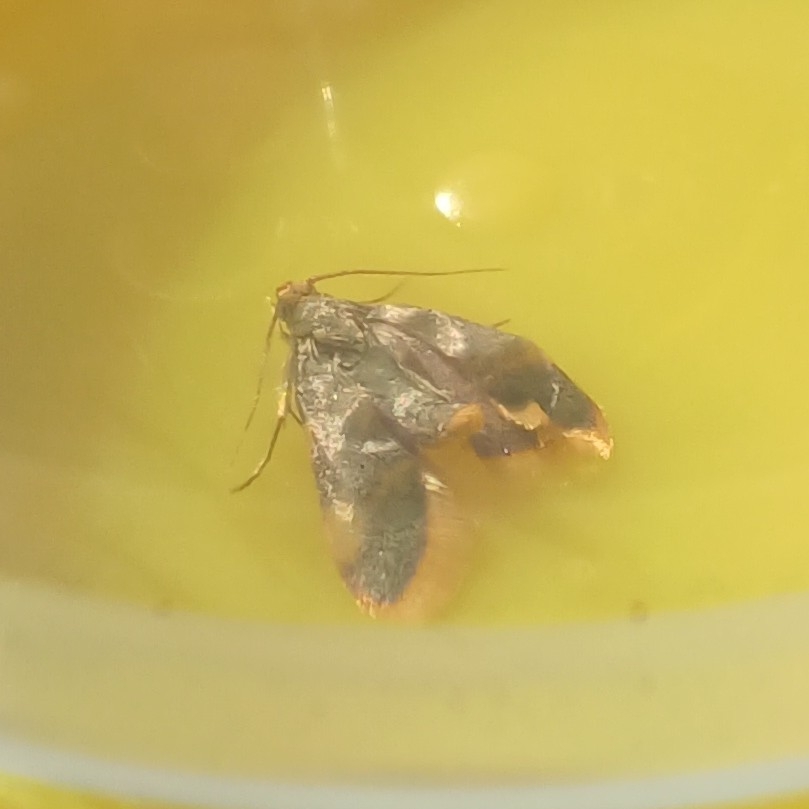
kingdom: Animalia
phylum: Arthropoda
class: Insecta
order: Lepidoptera
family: Pyralidae
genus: Hypsopygia
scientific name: Hypsopygia costalis
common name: Gold triangle
